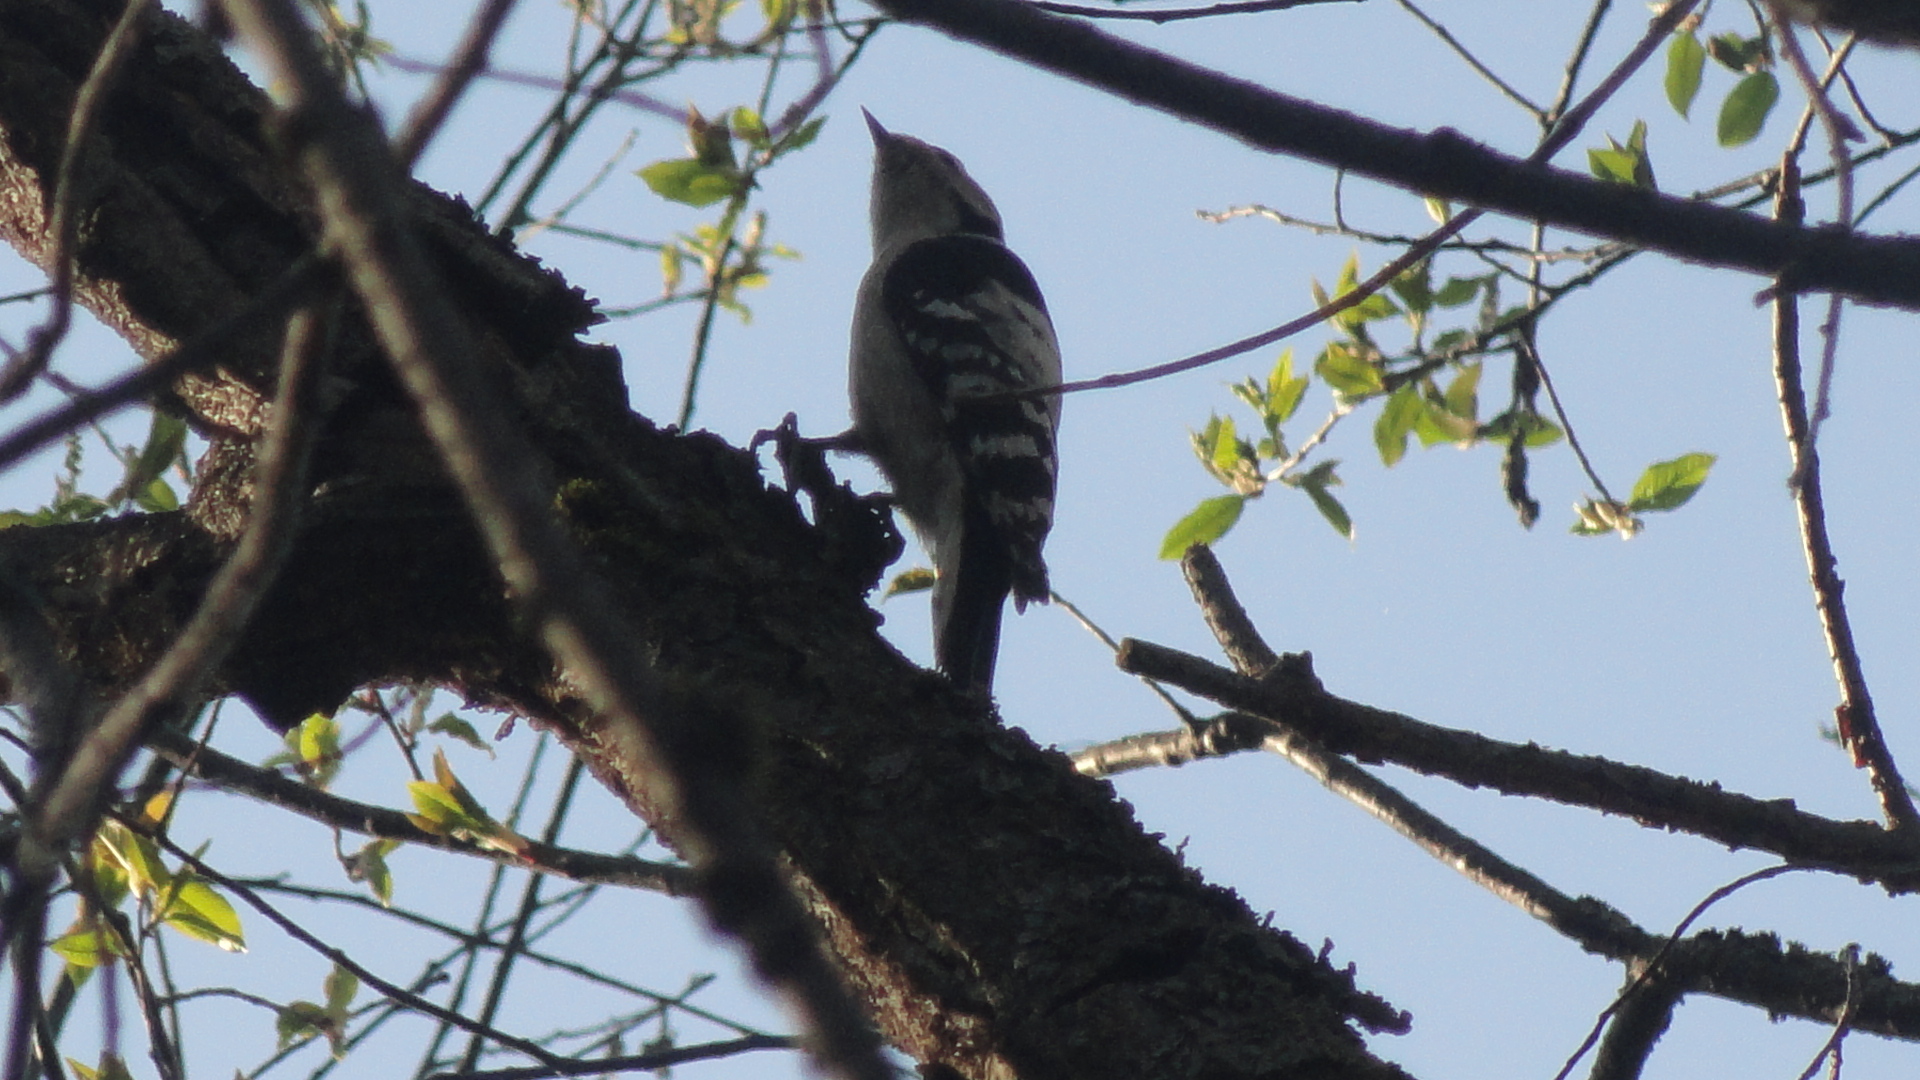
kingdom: Animalia
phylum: Chordata
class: Aves
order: Piciformes
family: Picidae
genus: Dryobates
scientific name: Dryobates minor
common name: Lesser spotted woodpecker
